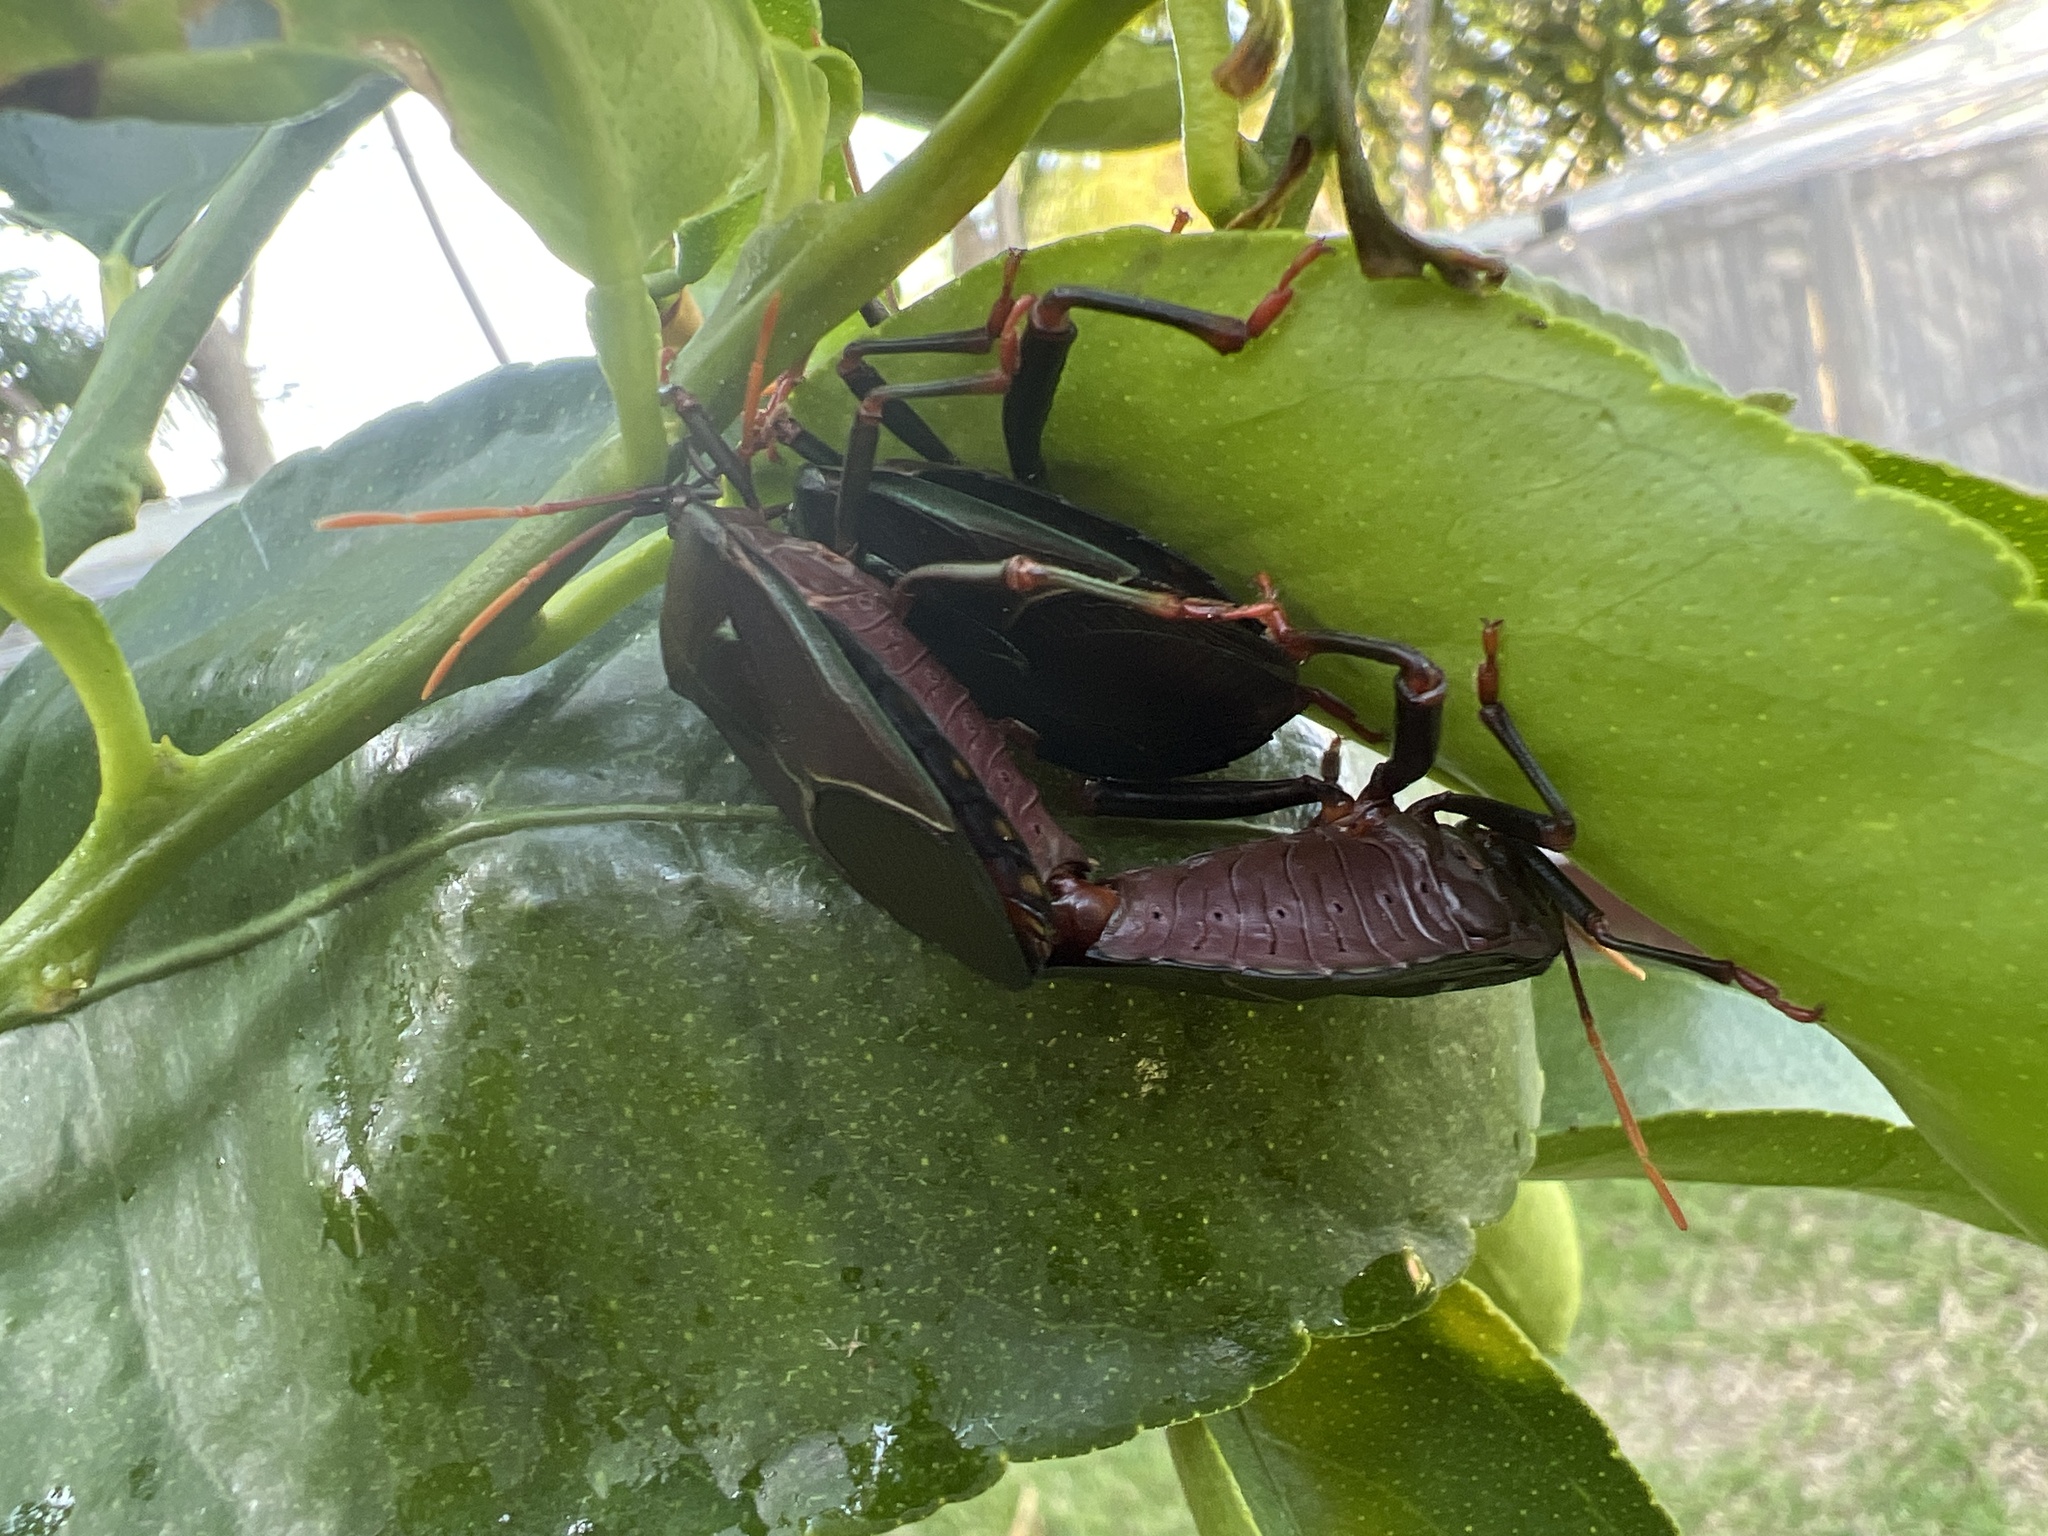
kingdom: Animalia
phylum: Arthropoda
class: Insecta
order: Hemiptera
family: Tessaratomidae
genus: Musgraveia
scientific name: Musgraveia sulciventris
